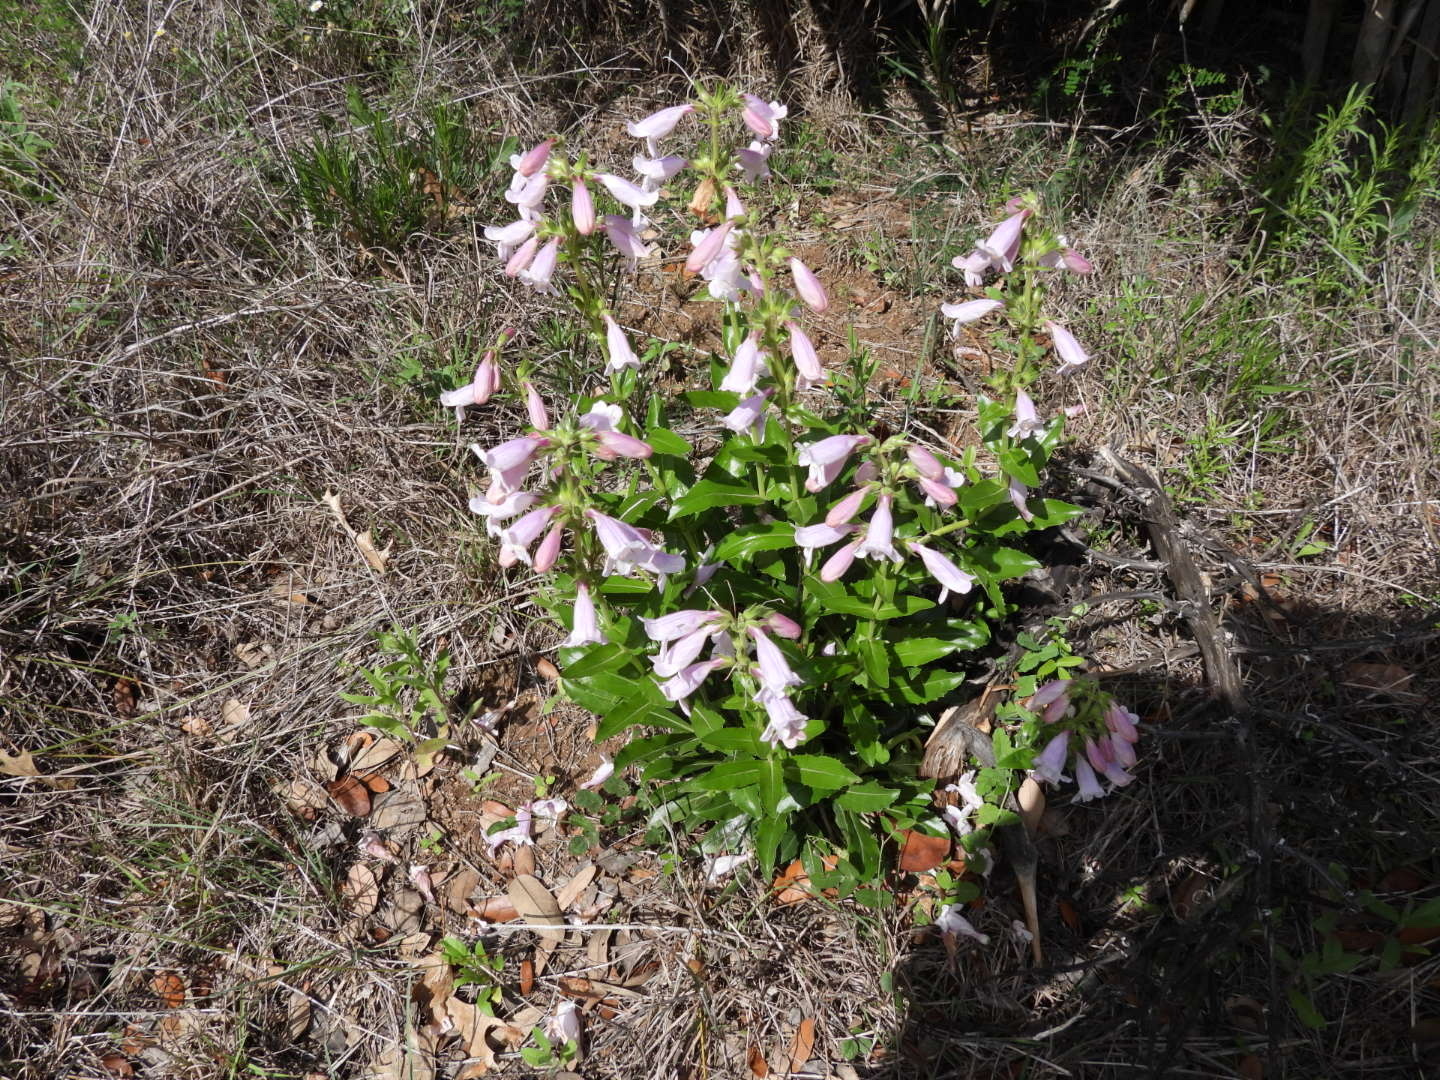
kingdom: Plantae
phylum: Tracheophyta
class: Magnoliopsida
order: Lamiales
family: Plantaginaceae
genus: Penstemon
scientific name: Penstemon cobaea
